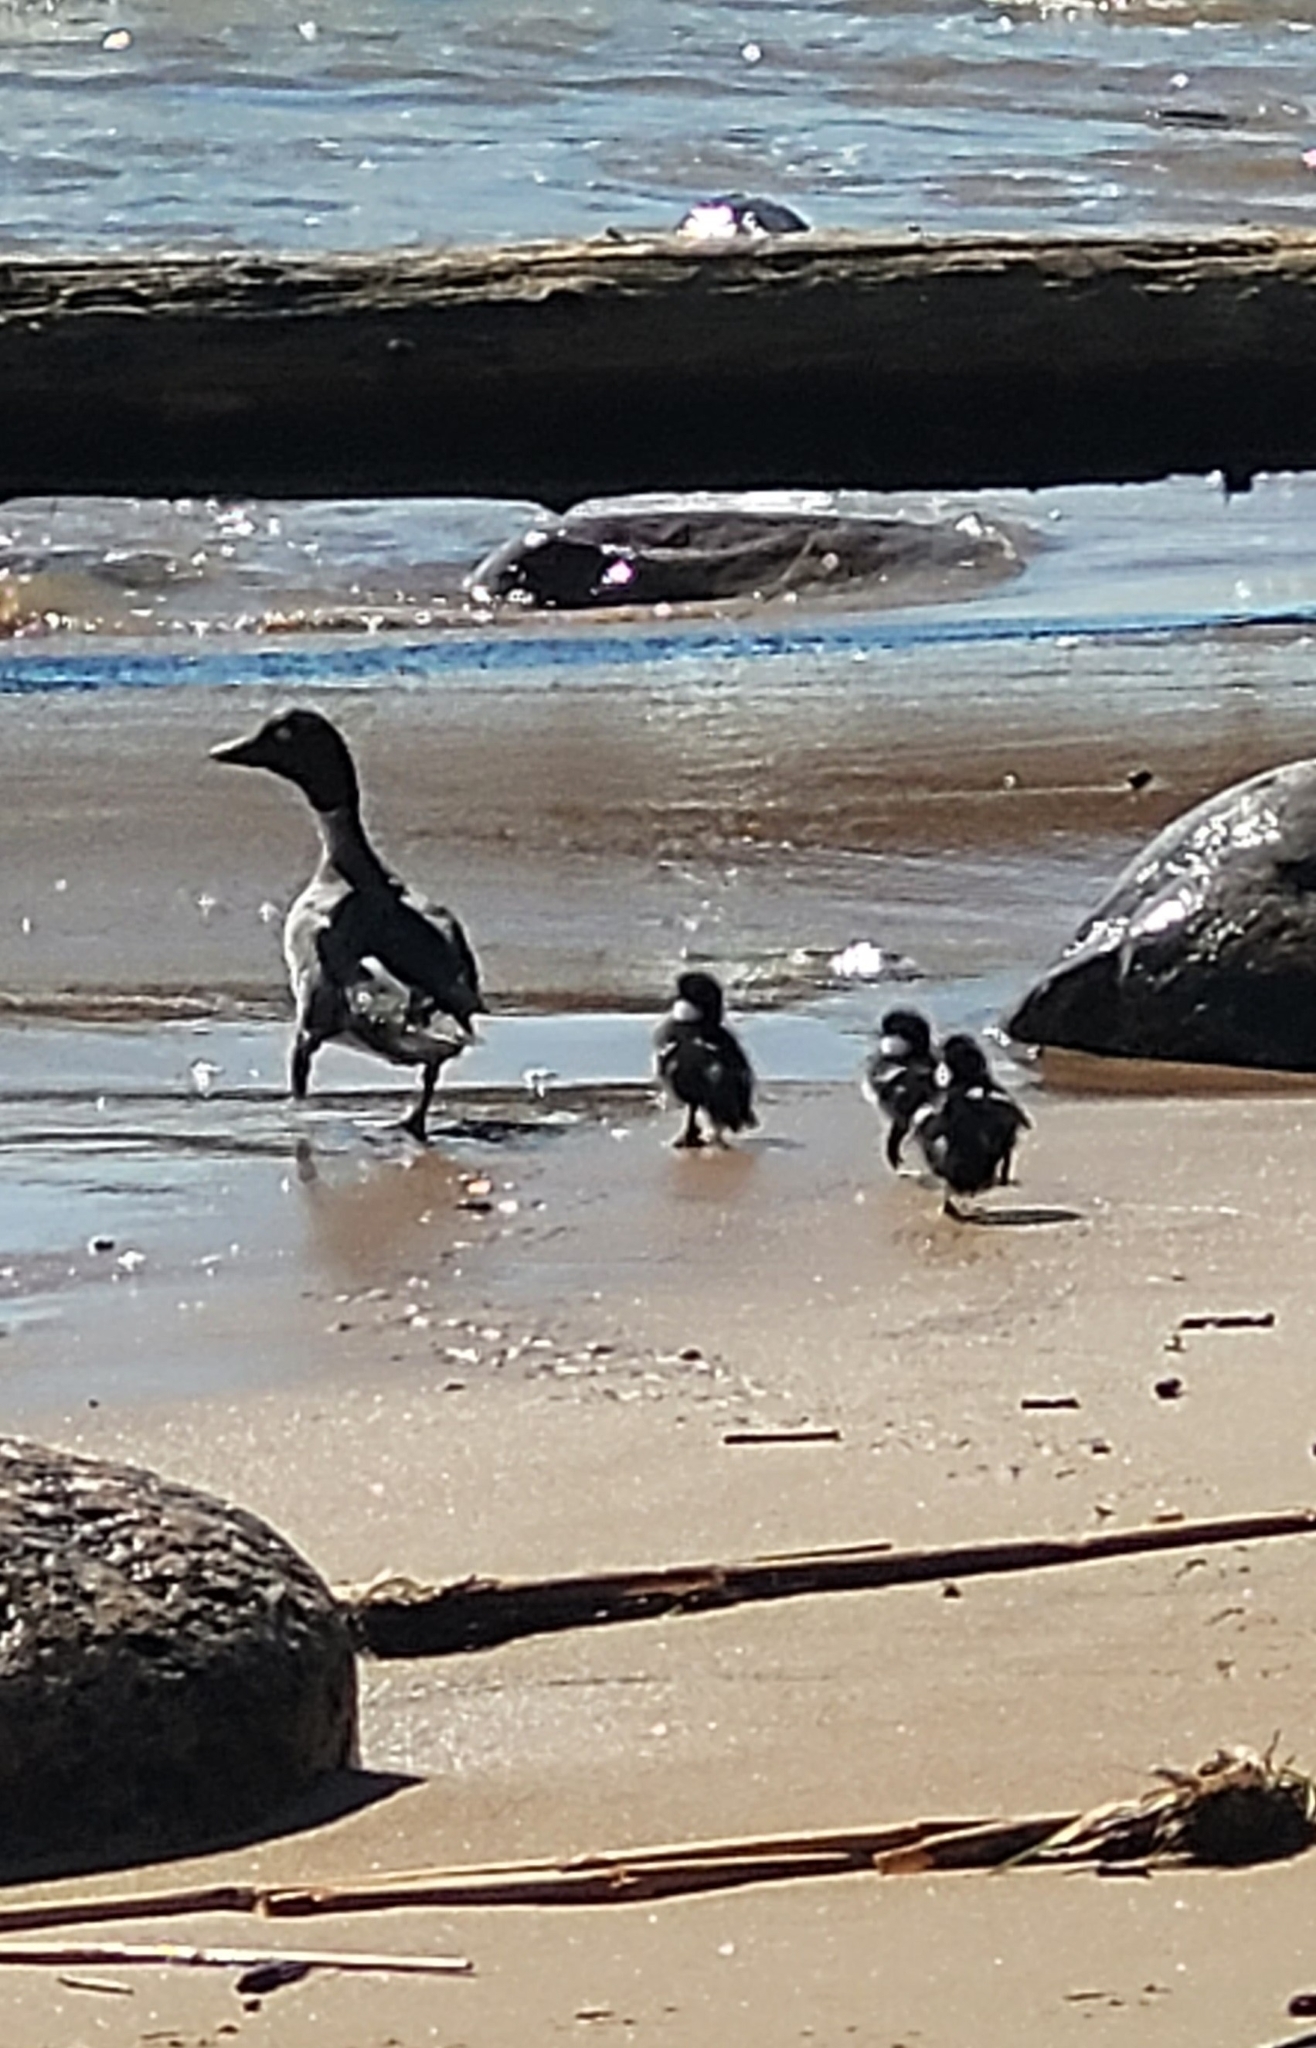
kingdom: Animalia
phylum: Chordata
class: Aves
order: Anseriformes
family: Anatidae
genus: Bucephala
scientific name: Bucephala clangula
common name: Common goldeneye
